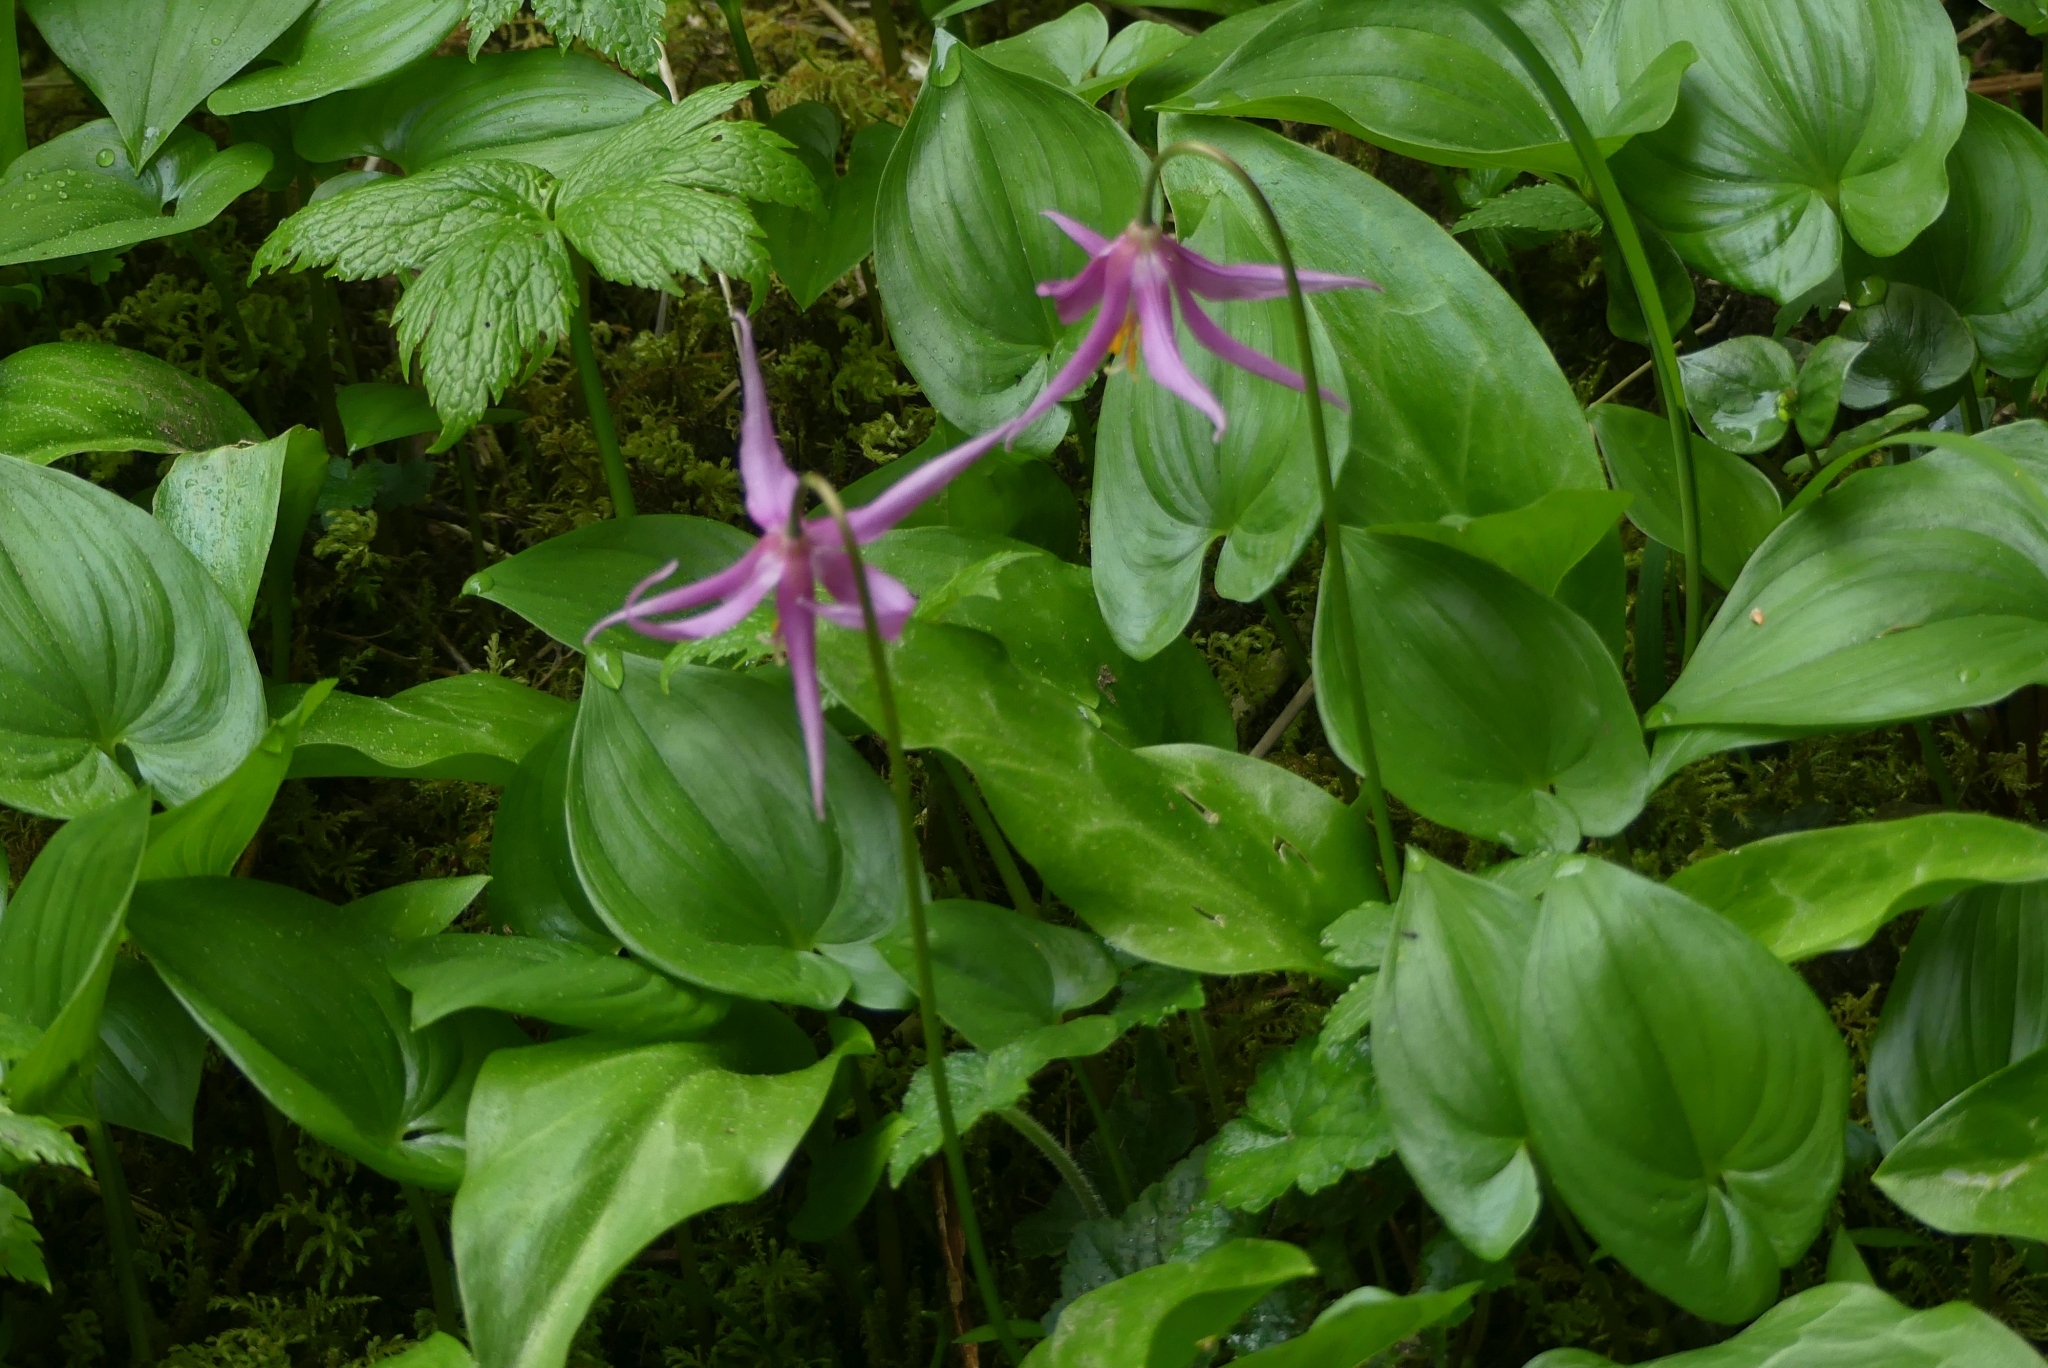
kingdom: Plantae
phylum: Tracheophyta
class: Liliopsida
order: Liliales
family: Liliaceae
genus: Erythronium
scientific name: Erythronium revolutum
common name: Pink fawn-lily
